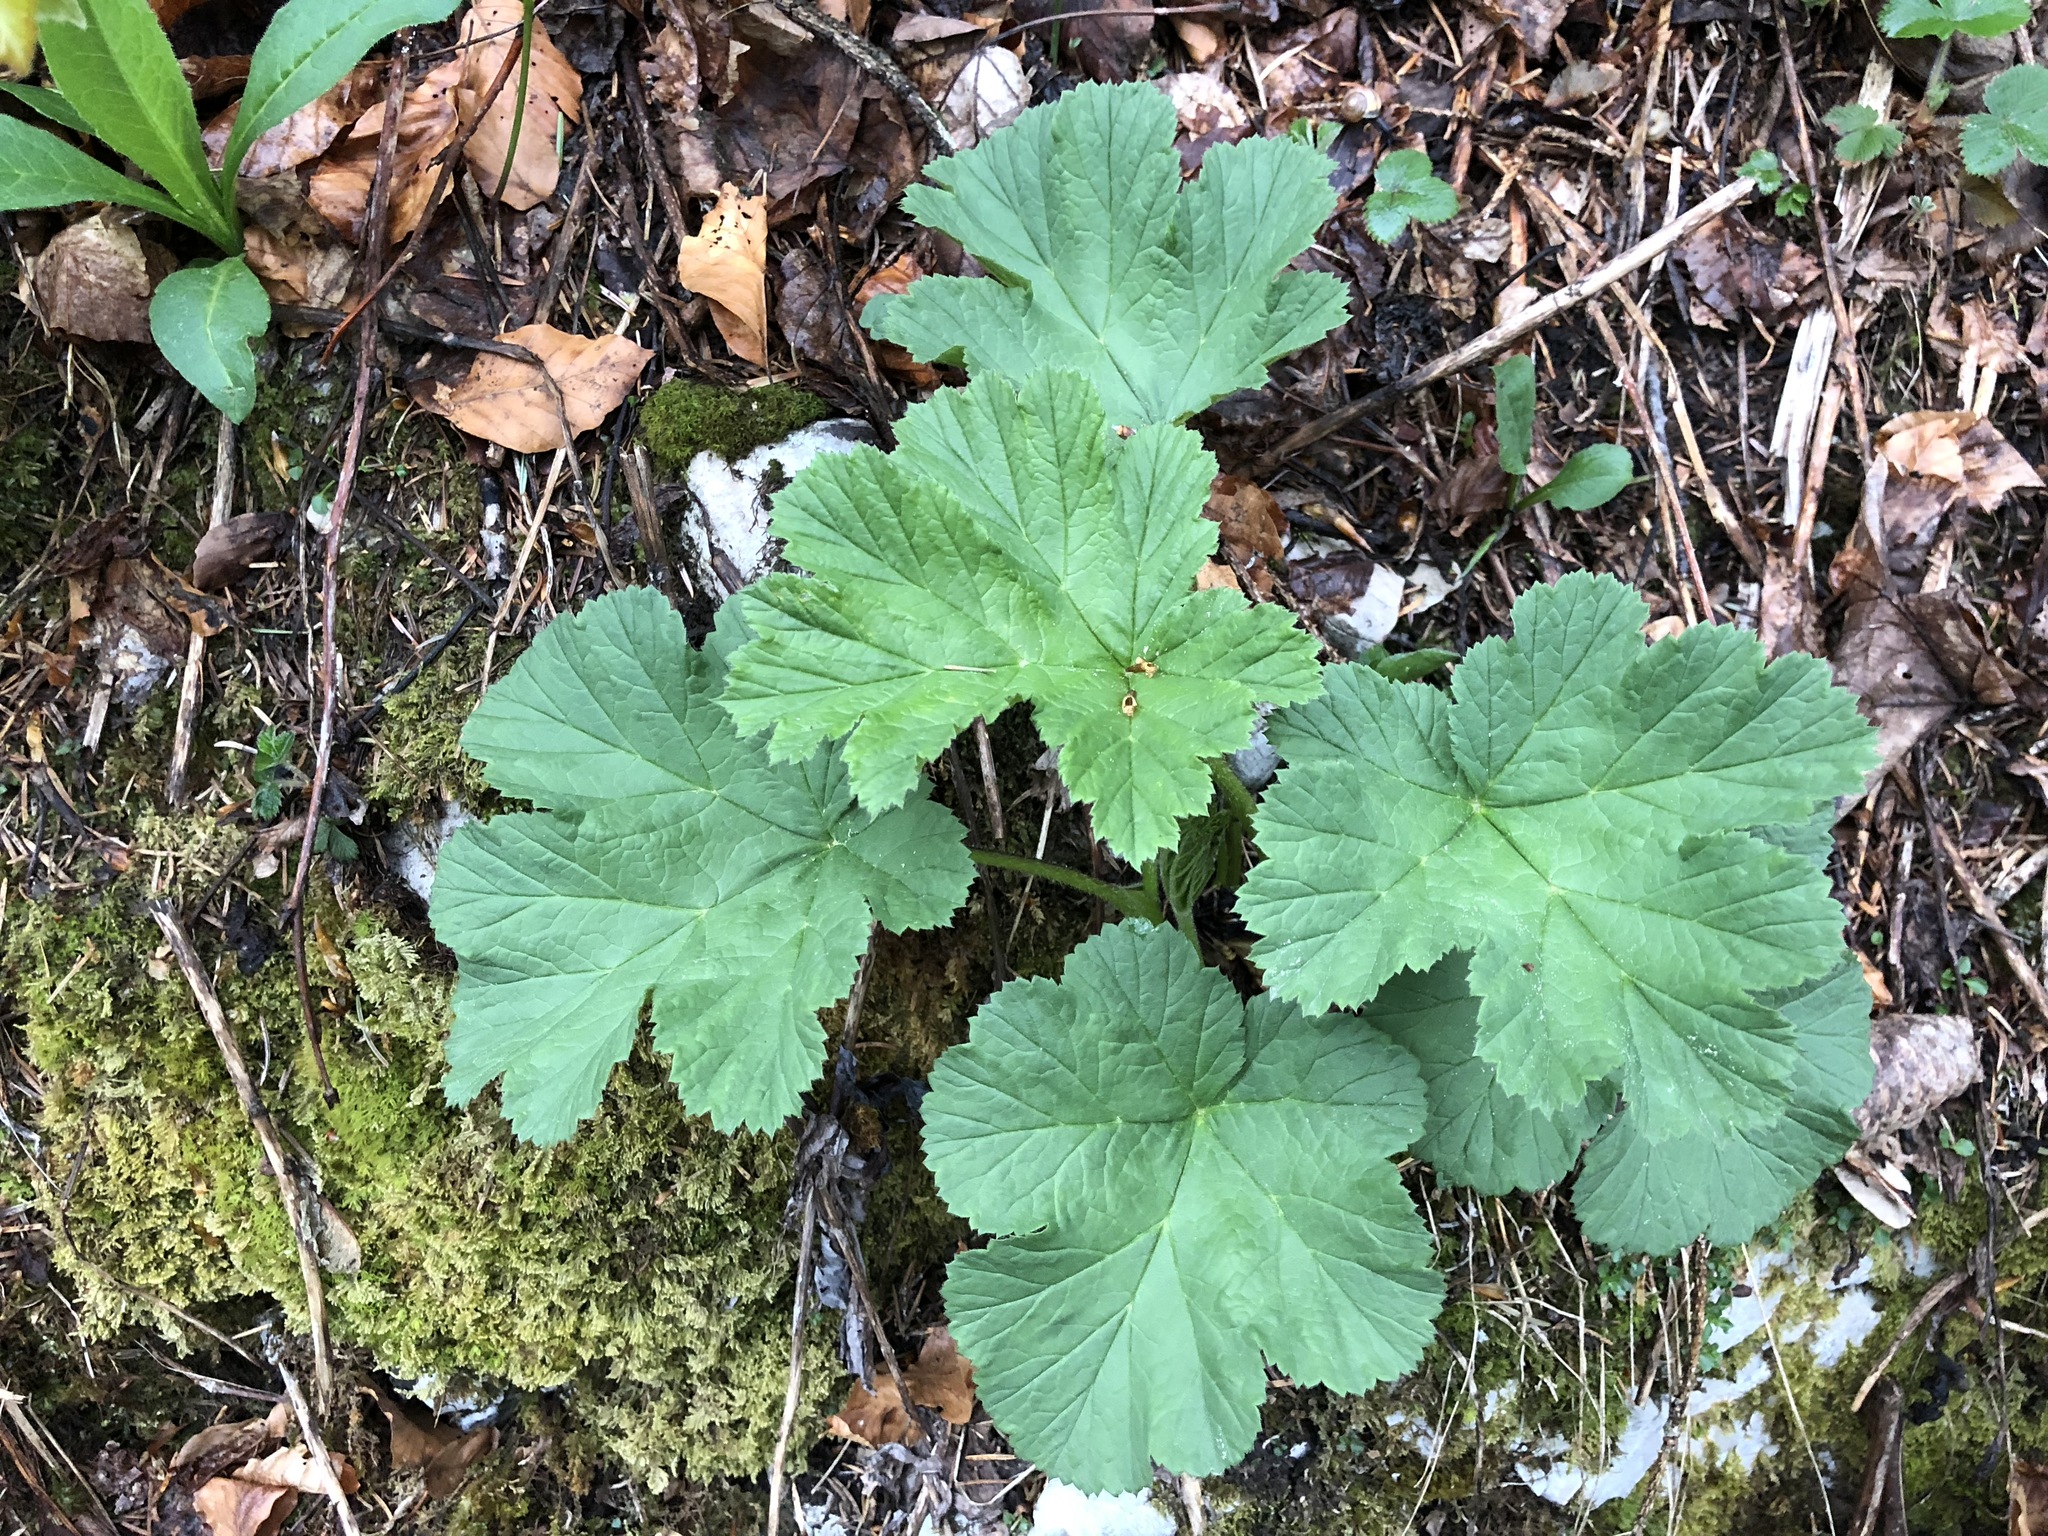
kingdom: Plantae
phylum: Tracheophyta
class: Magnoliopsida
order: Apiales
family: Apiaceae
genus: Heracleum
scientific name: Heracleum sphondylium
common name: Hogweed
